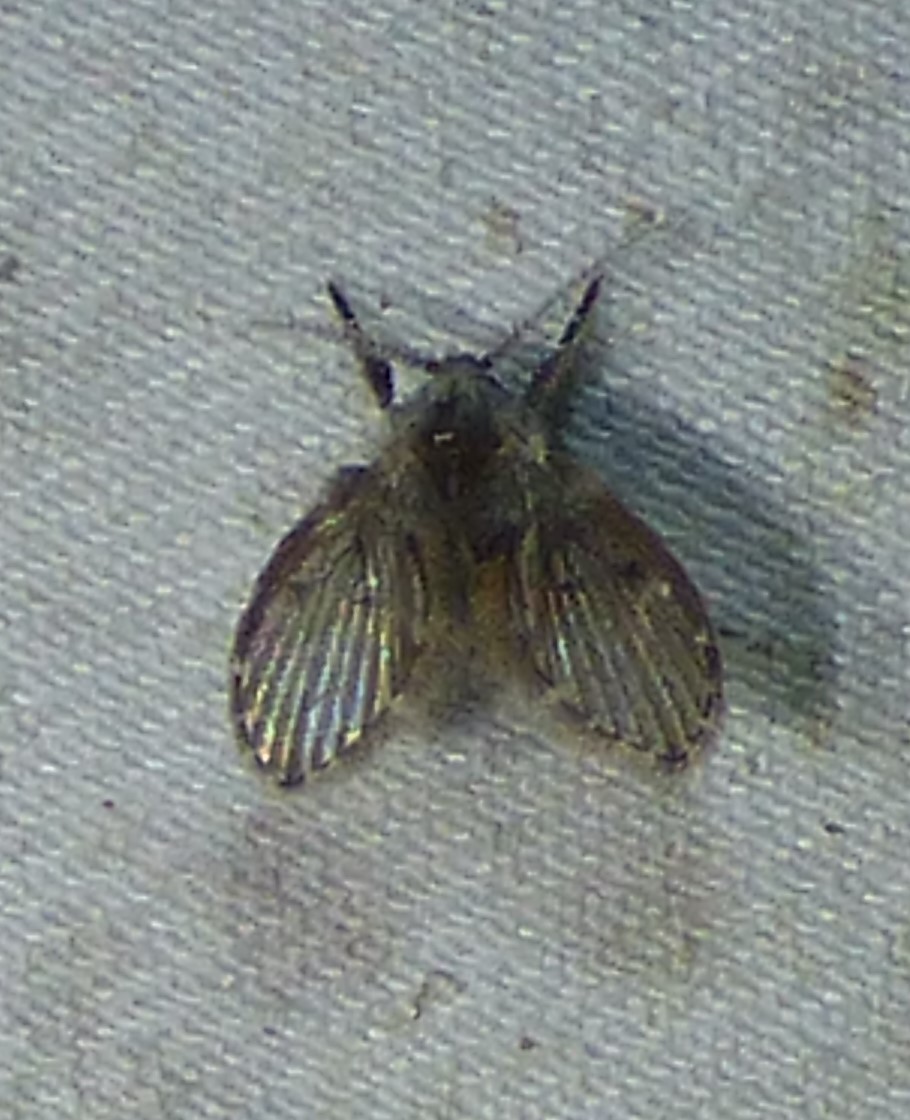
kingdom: Animalia
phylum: Arthropoda
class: Insecta
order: Diptera
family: Psychodidae
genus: Clogmia
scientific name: Clogmia albipunctatus
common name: White-spotted moth fly
